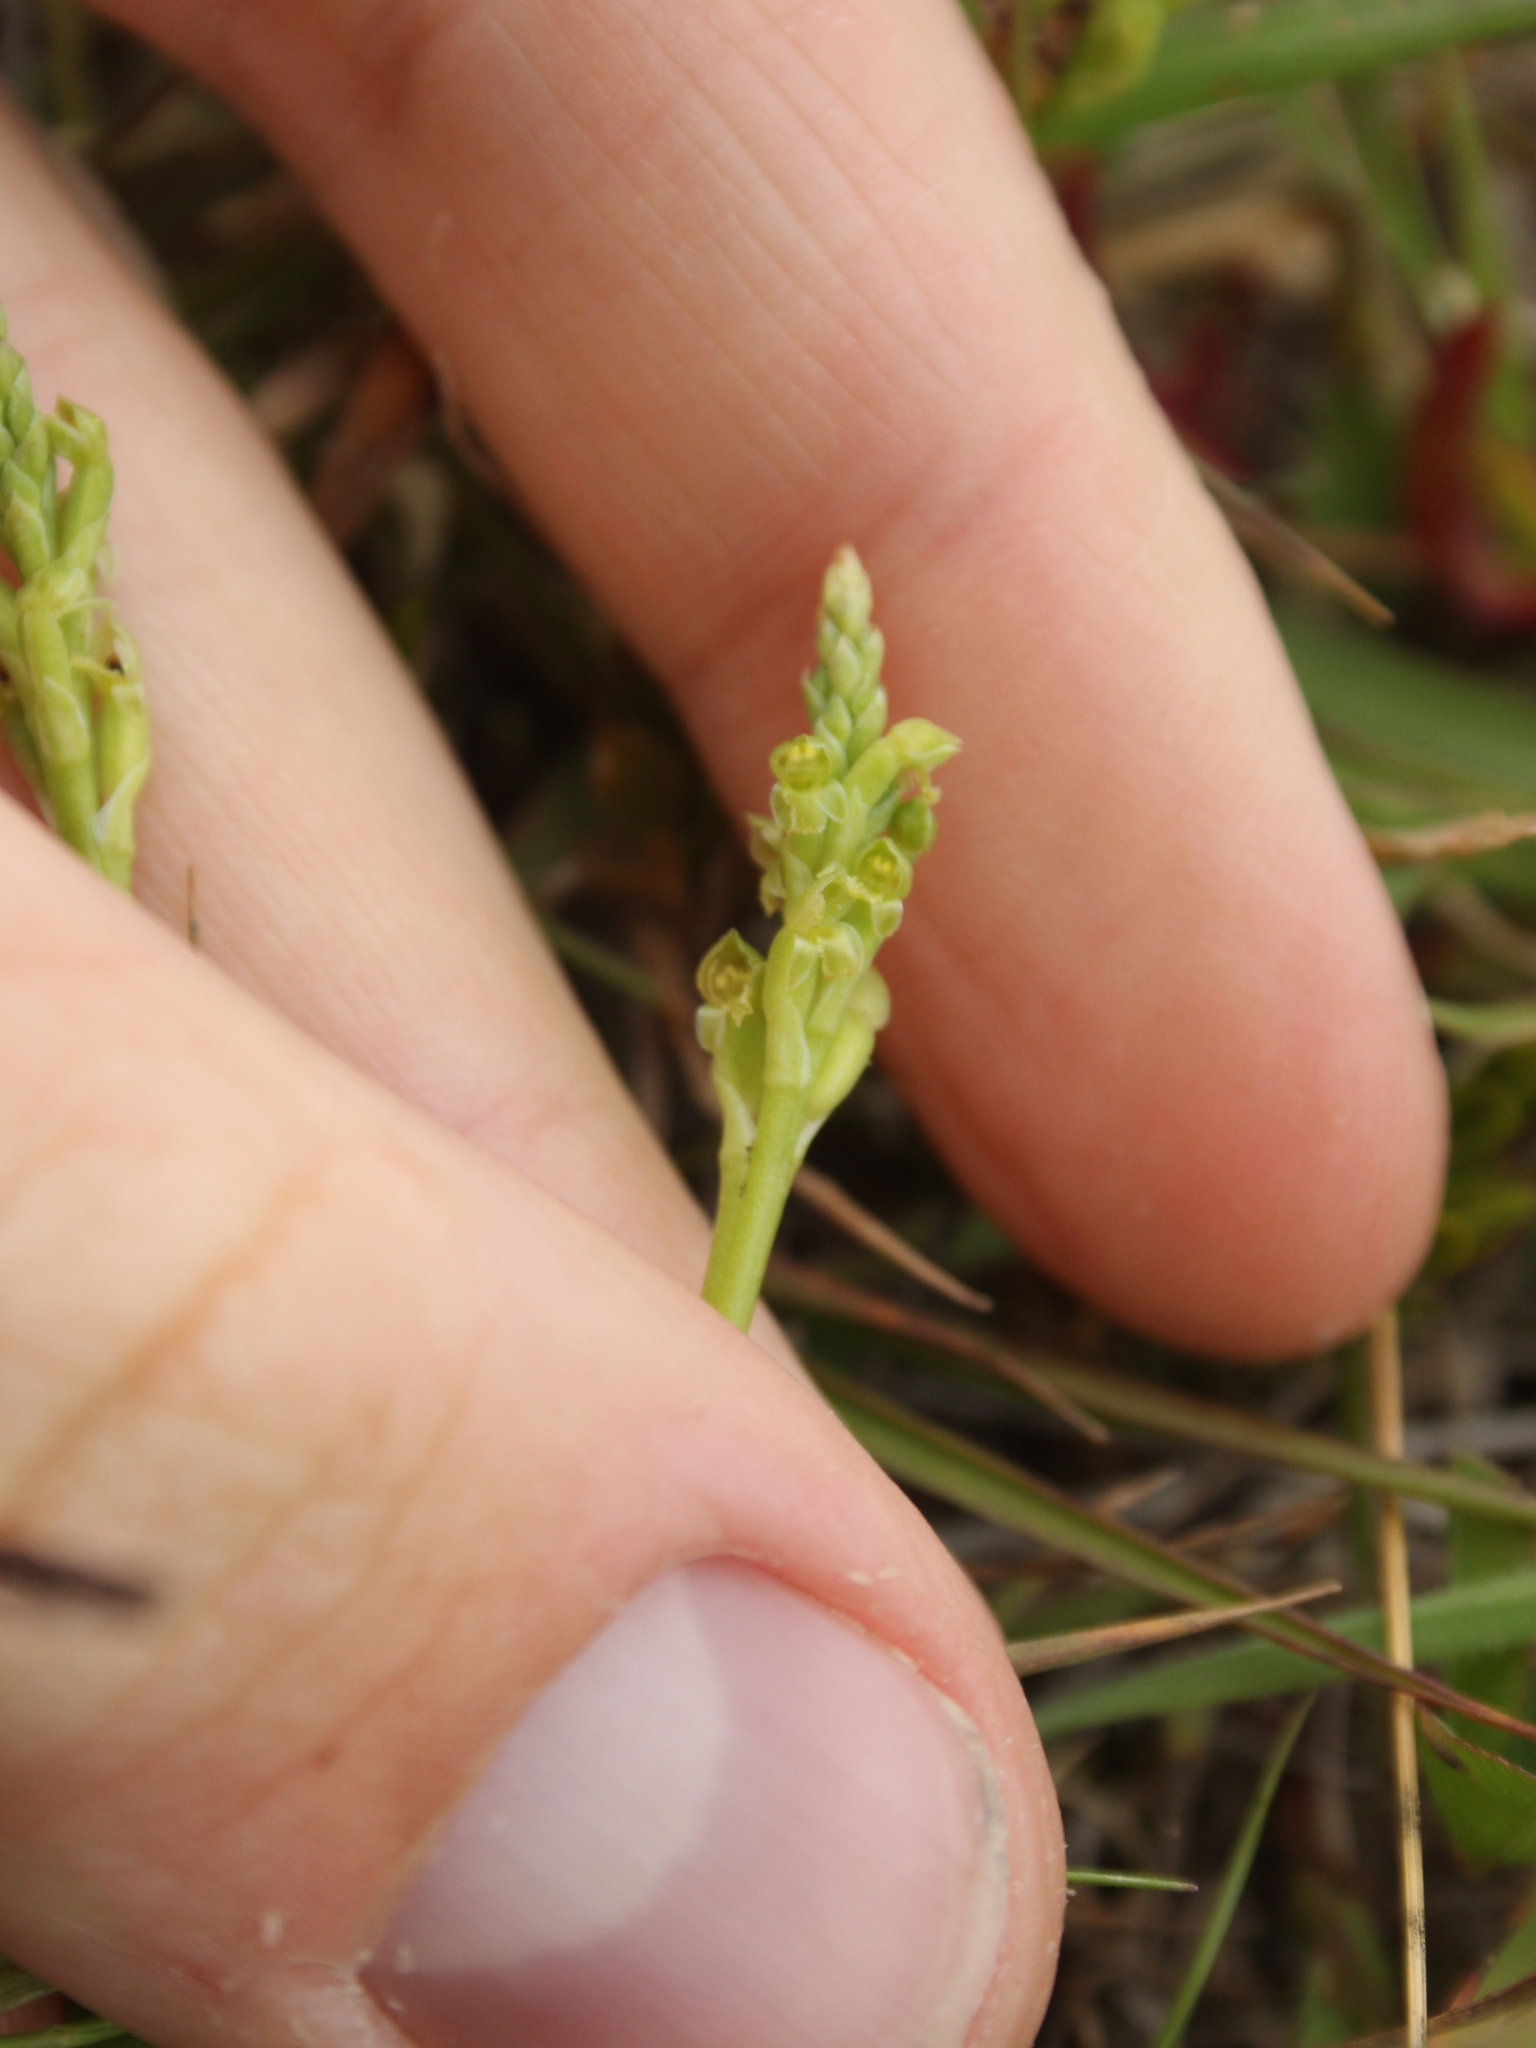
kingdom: Plantae
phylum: Tracheophyta
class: Liliopsida
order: Asparagales
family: Orchidaceae
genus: Microtis
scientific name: Microtis unifolia
